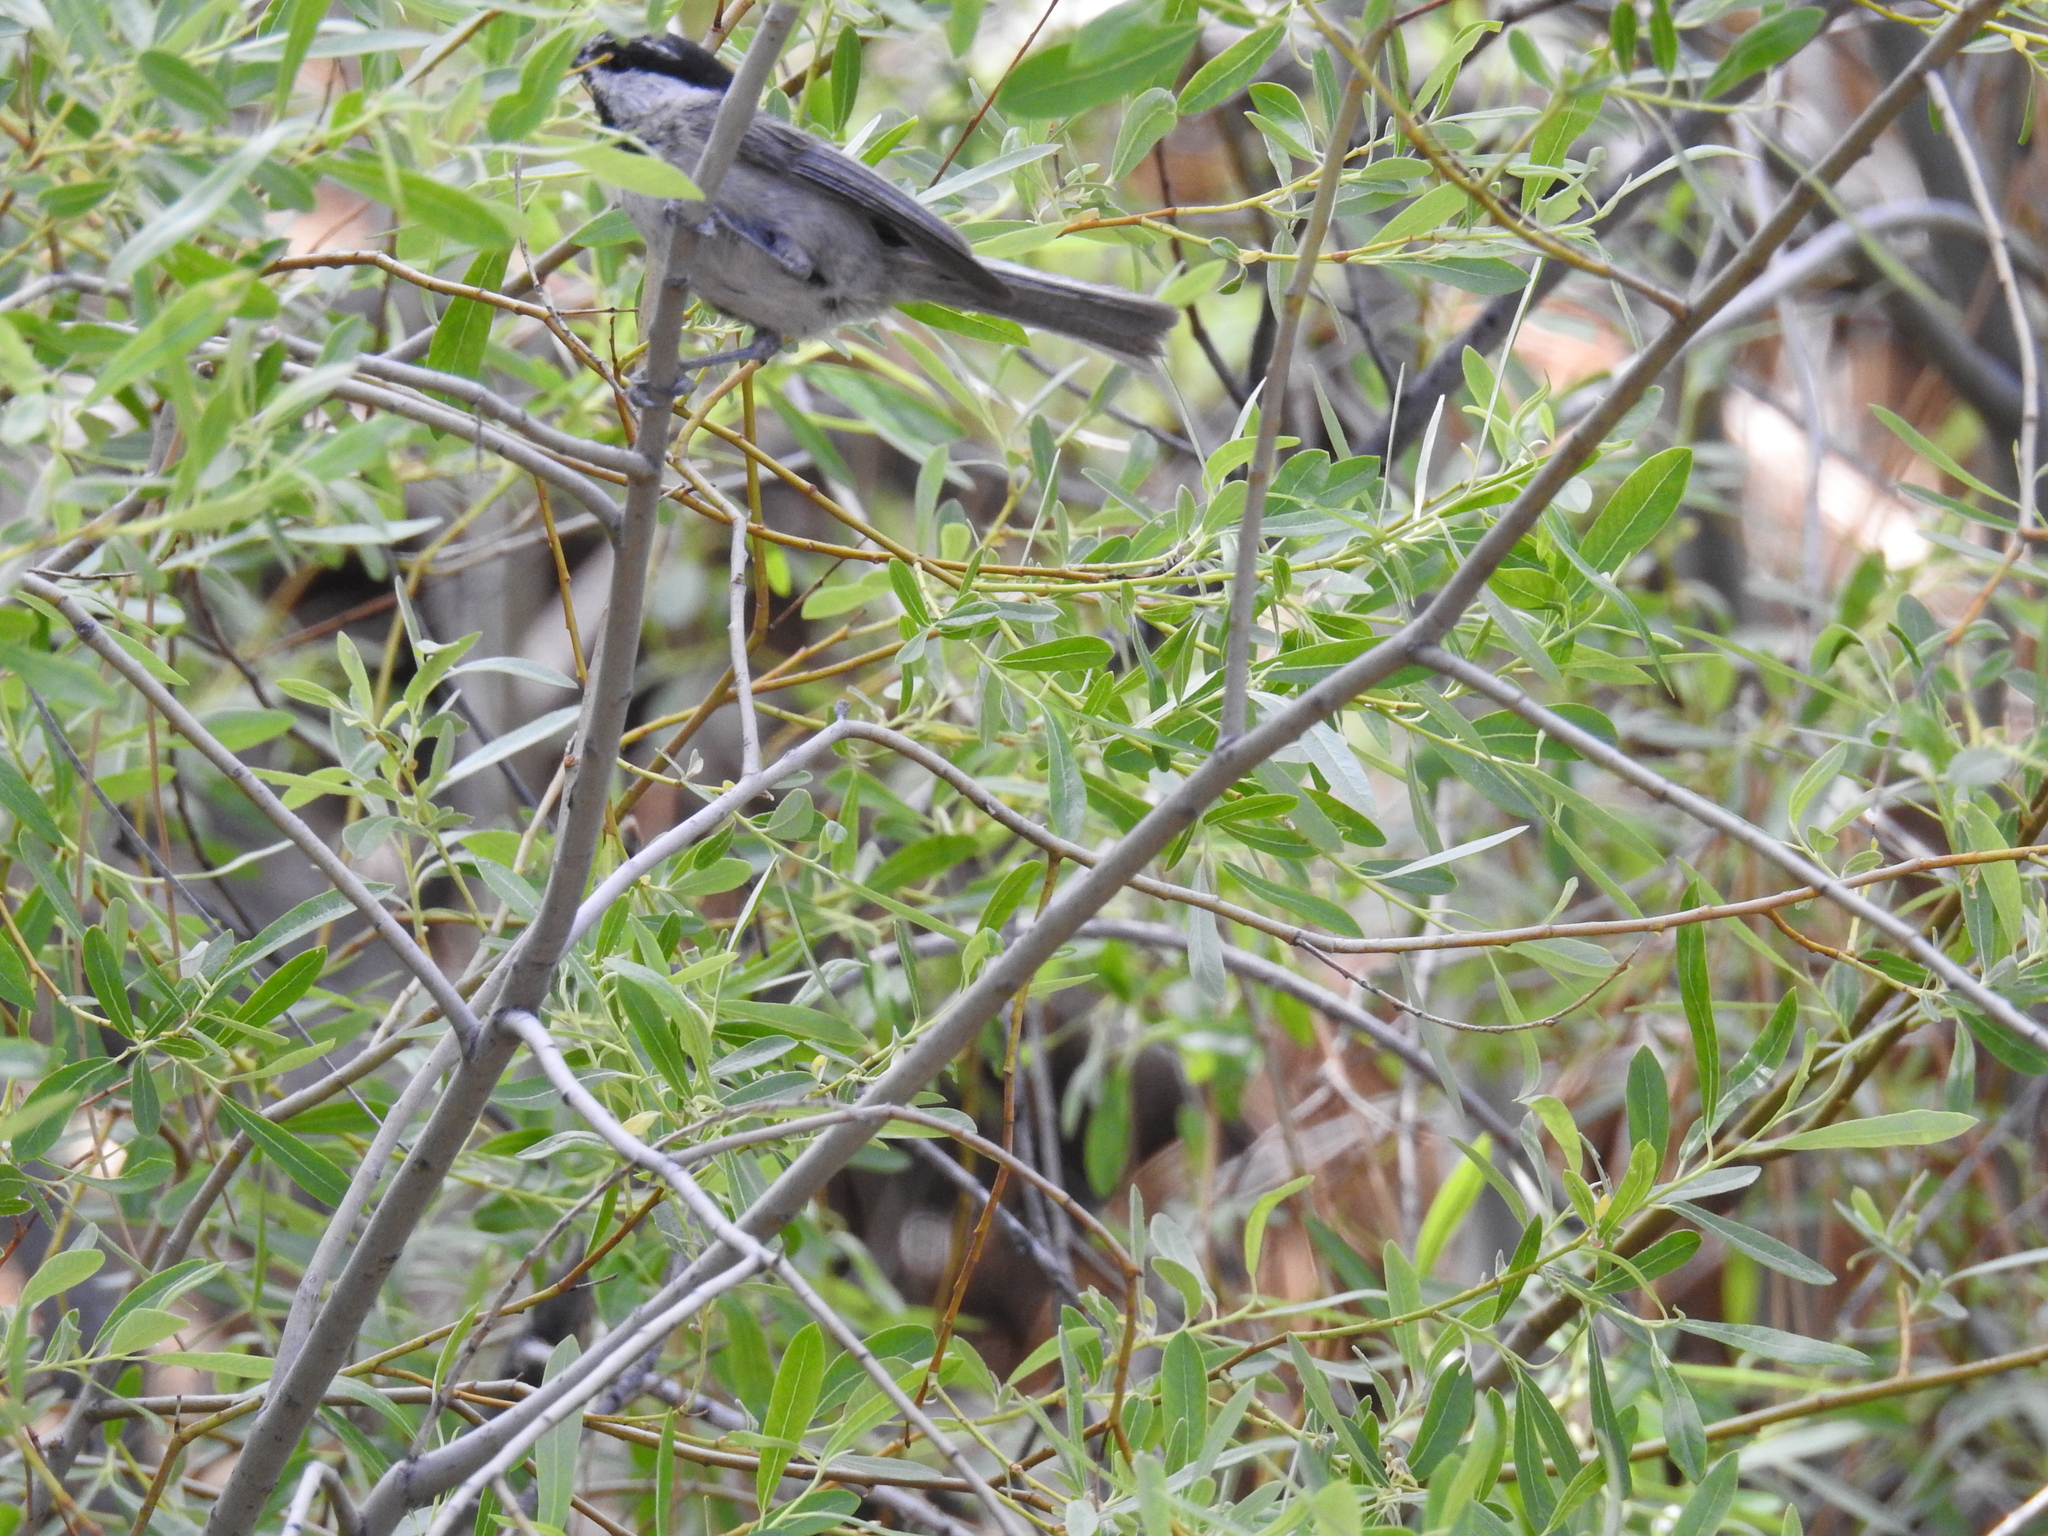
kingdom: Animalia
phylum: Chordata
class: Aves
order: Passeriformes
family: Paridae
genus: Poecile
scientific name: Poecile gambeli
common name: Mountain chickadee
